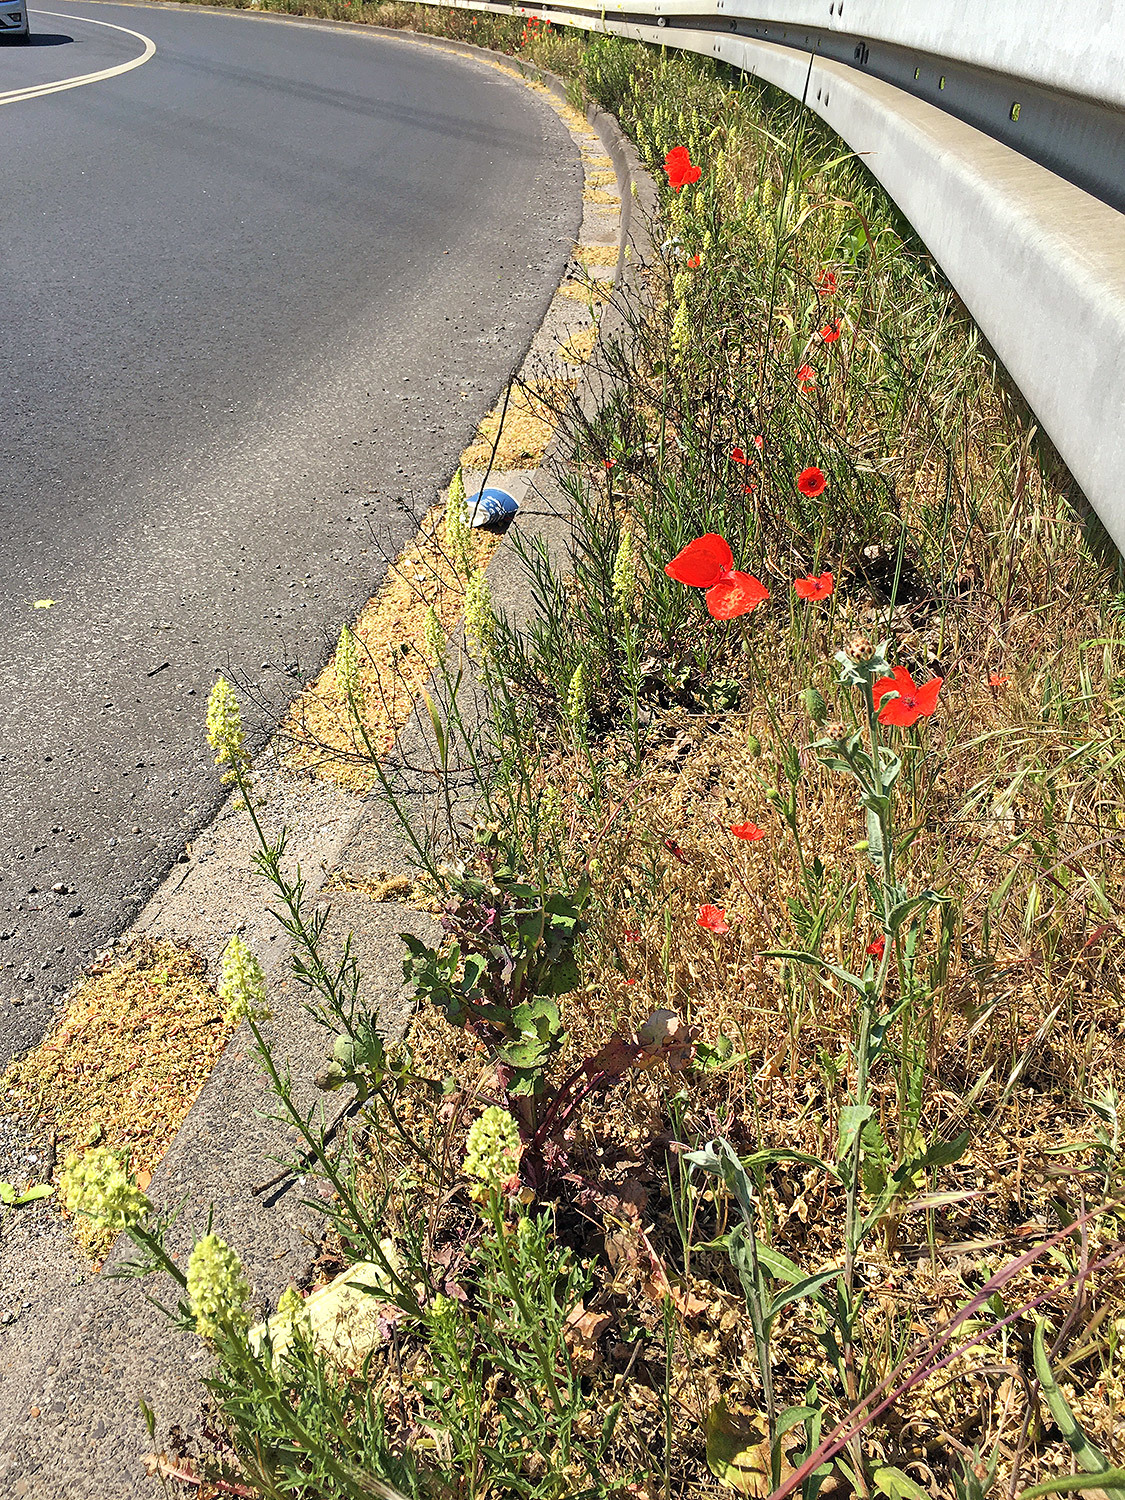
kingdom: Plantae
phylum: Tracheophyta
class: Magnoliopsida
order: Brassicales
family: Resedaceae
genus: Reseda
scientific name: Reseda lutea
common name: Wild mignonette
